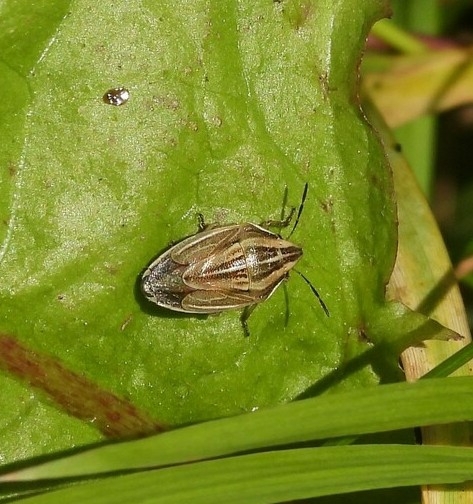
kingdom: Animalia
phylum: Arthropoda
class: Insecta
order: Hemiptera
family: Pentatomidae
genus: Aelia
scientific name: Aelia acuminata
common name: Bishop's mitre
